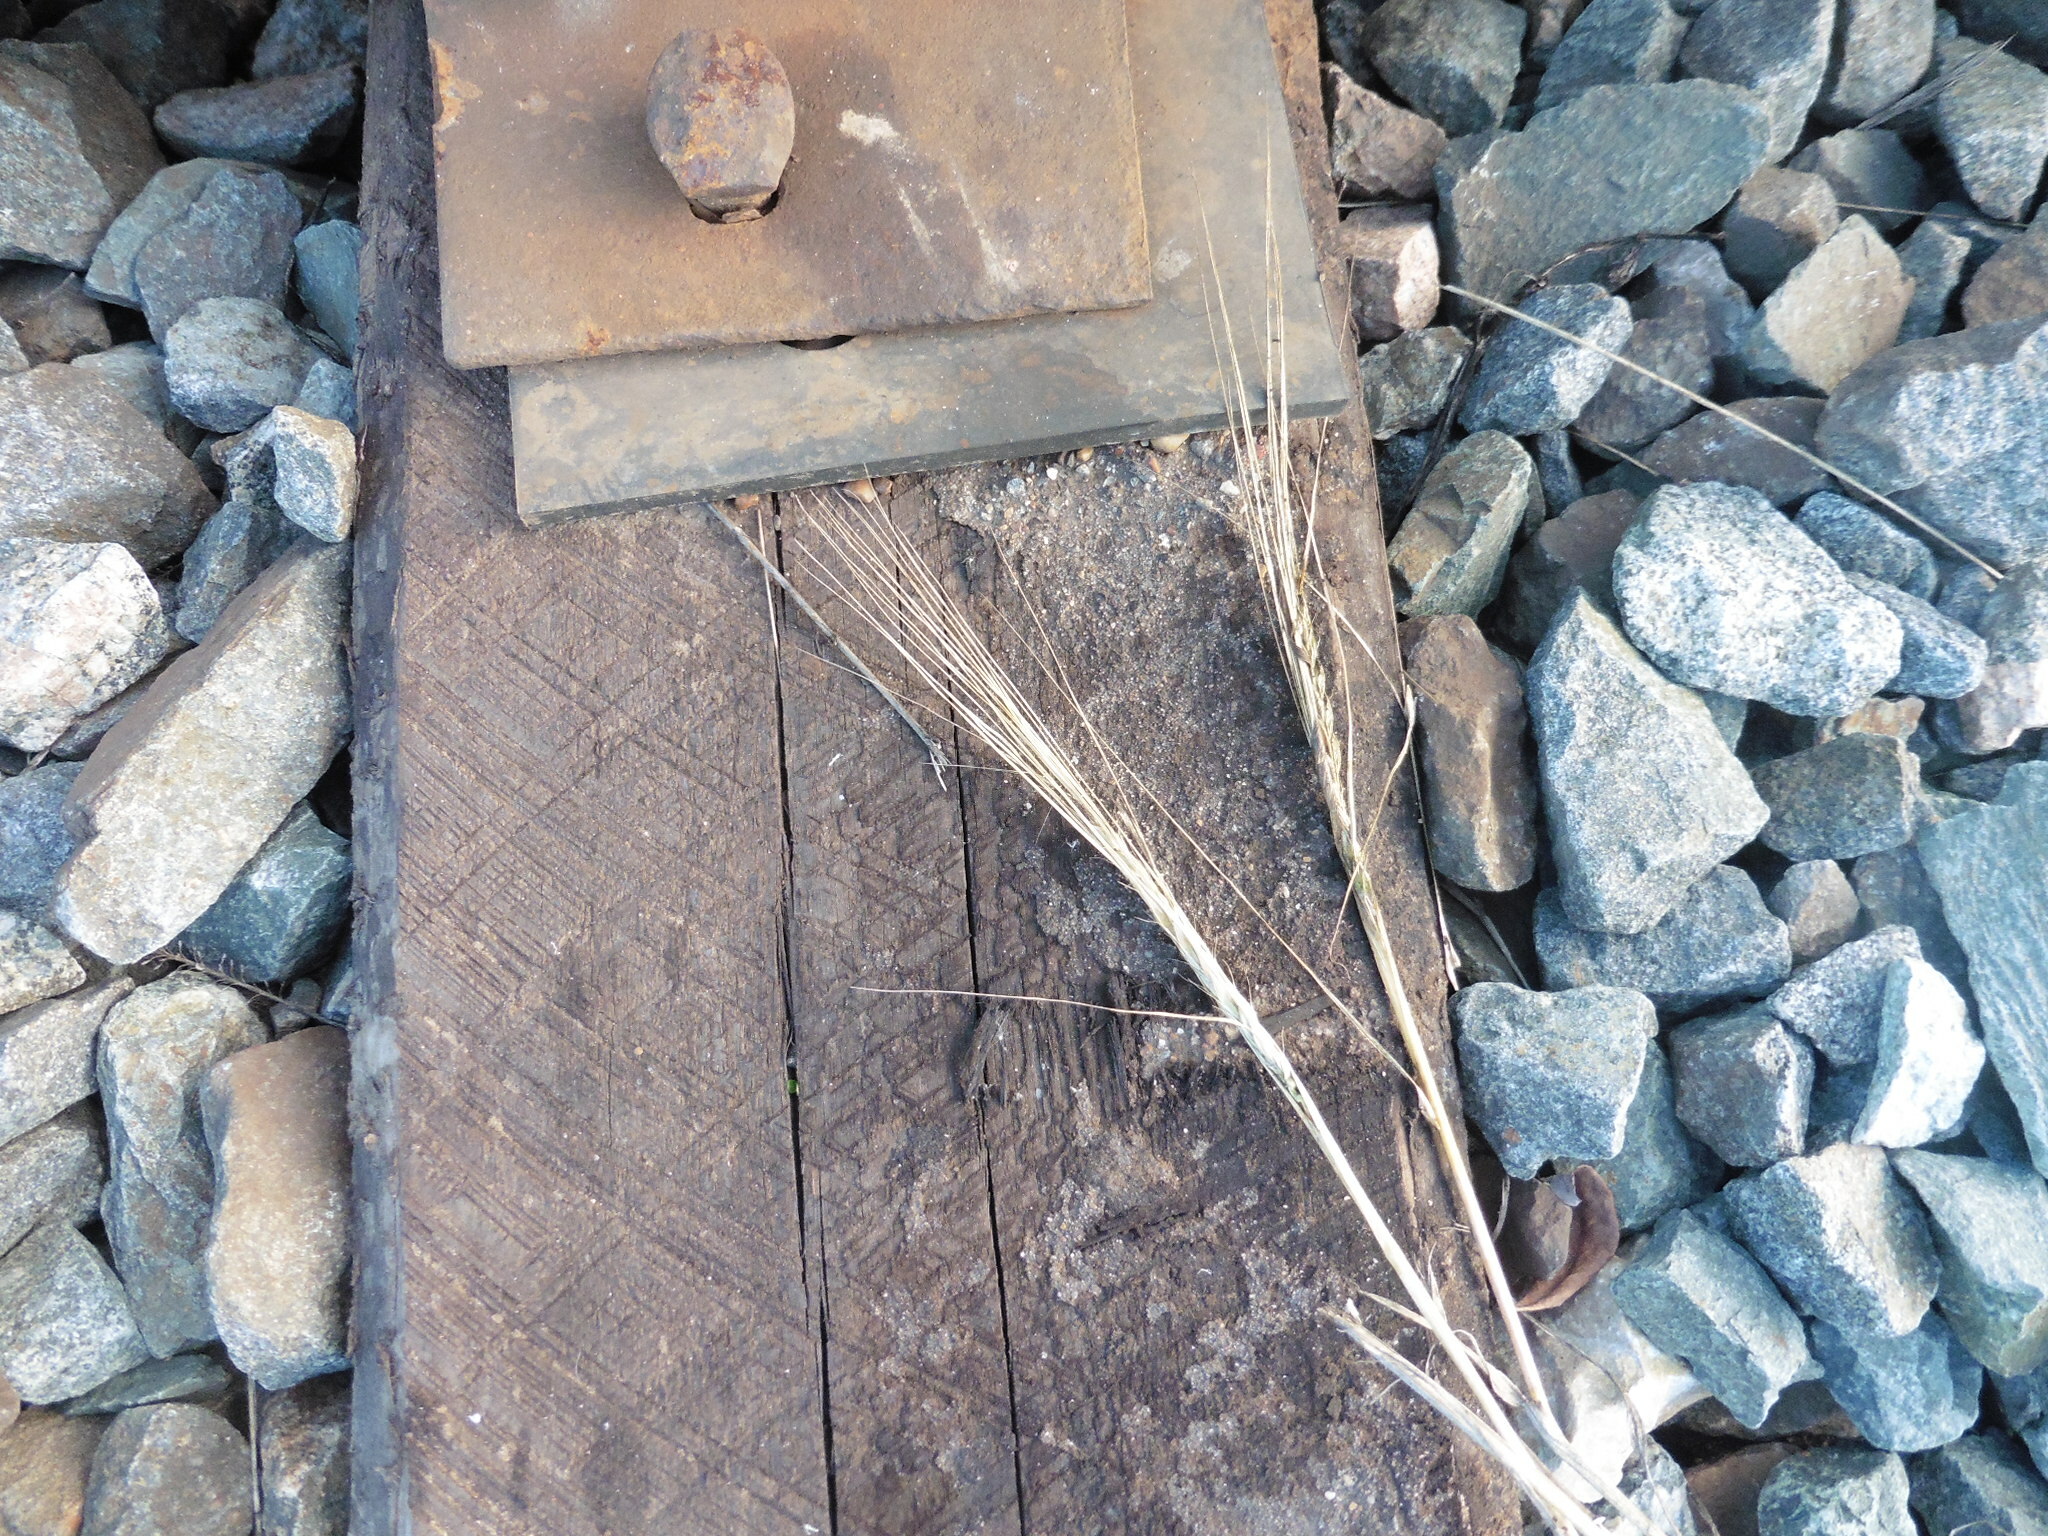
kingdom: Plantae
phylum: Tracheophyta
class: Liliopsida
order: Poales
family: Poaceae
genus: Hordeum
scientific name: Hordeum distichon
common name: Two-rowed barley
